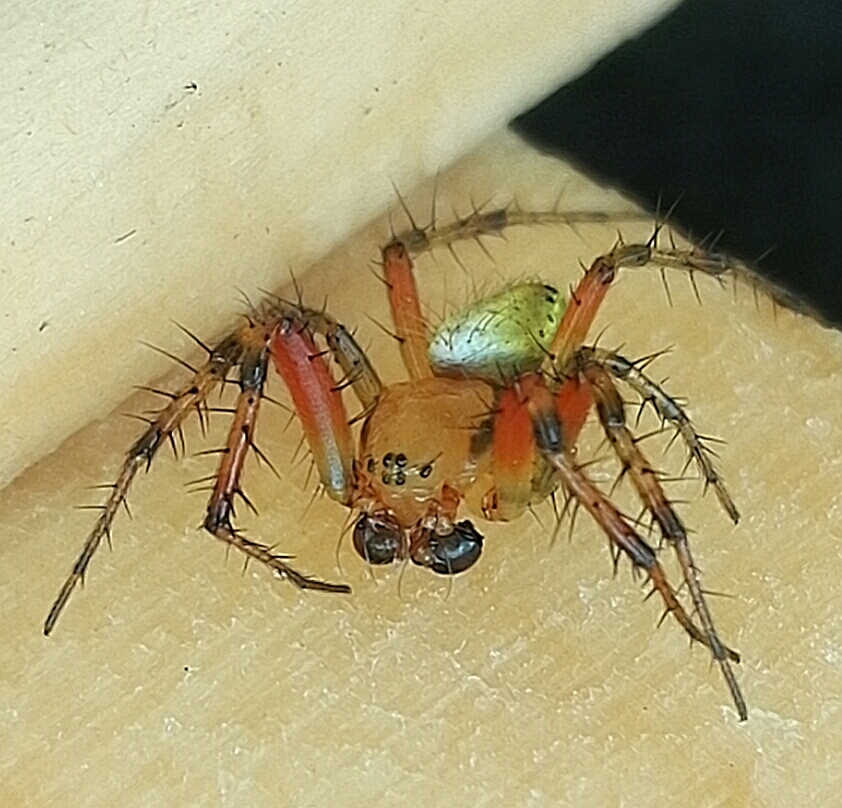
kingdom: Animalia
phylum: Arthropoda
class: Arachnida
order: Araneae
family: Araneidae
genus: Araniella
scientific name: Araniella cucurbitina
